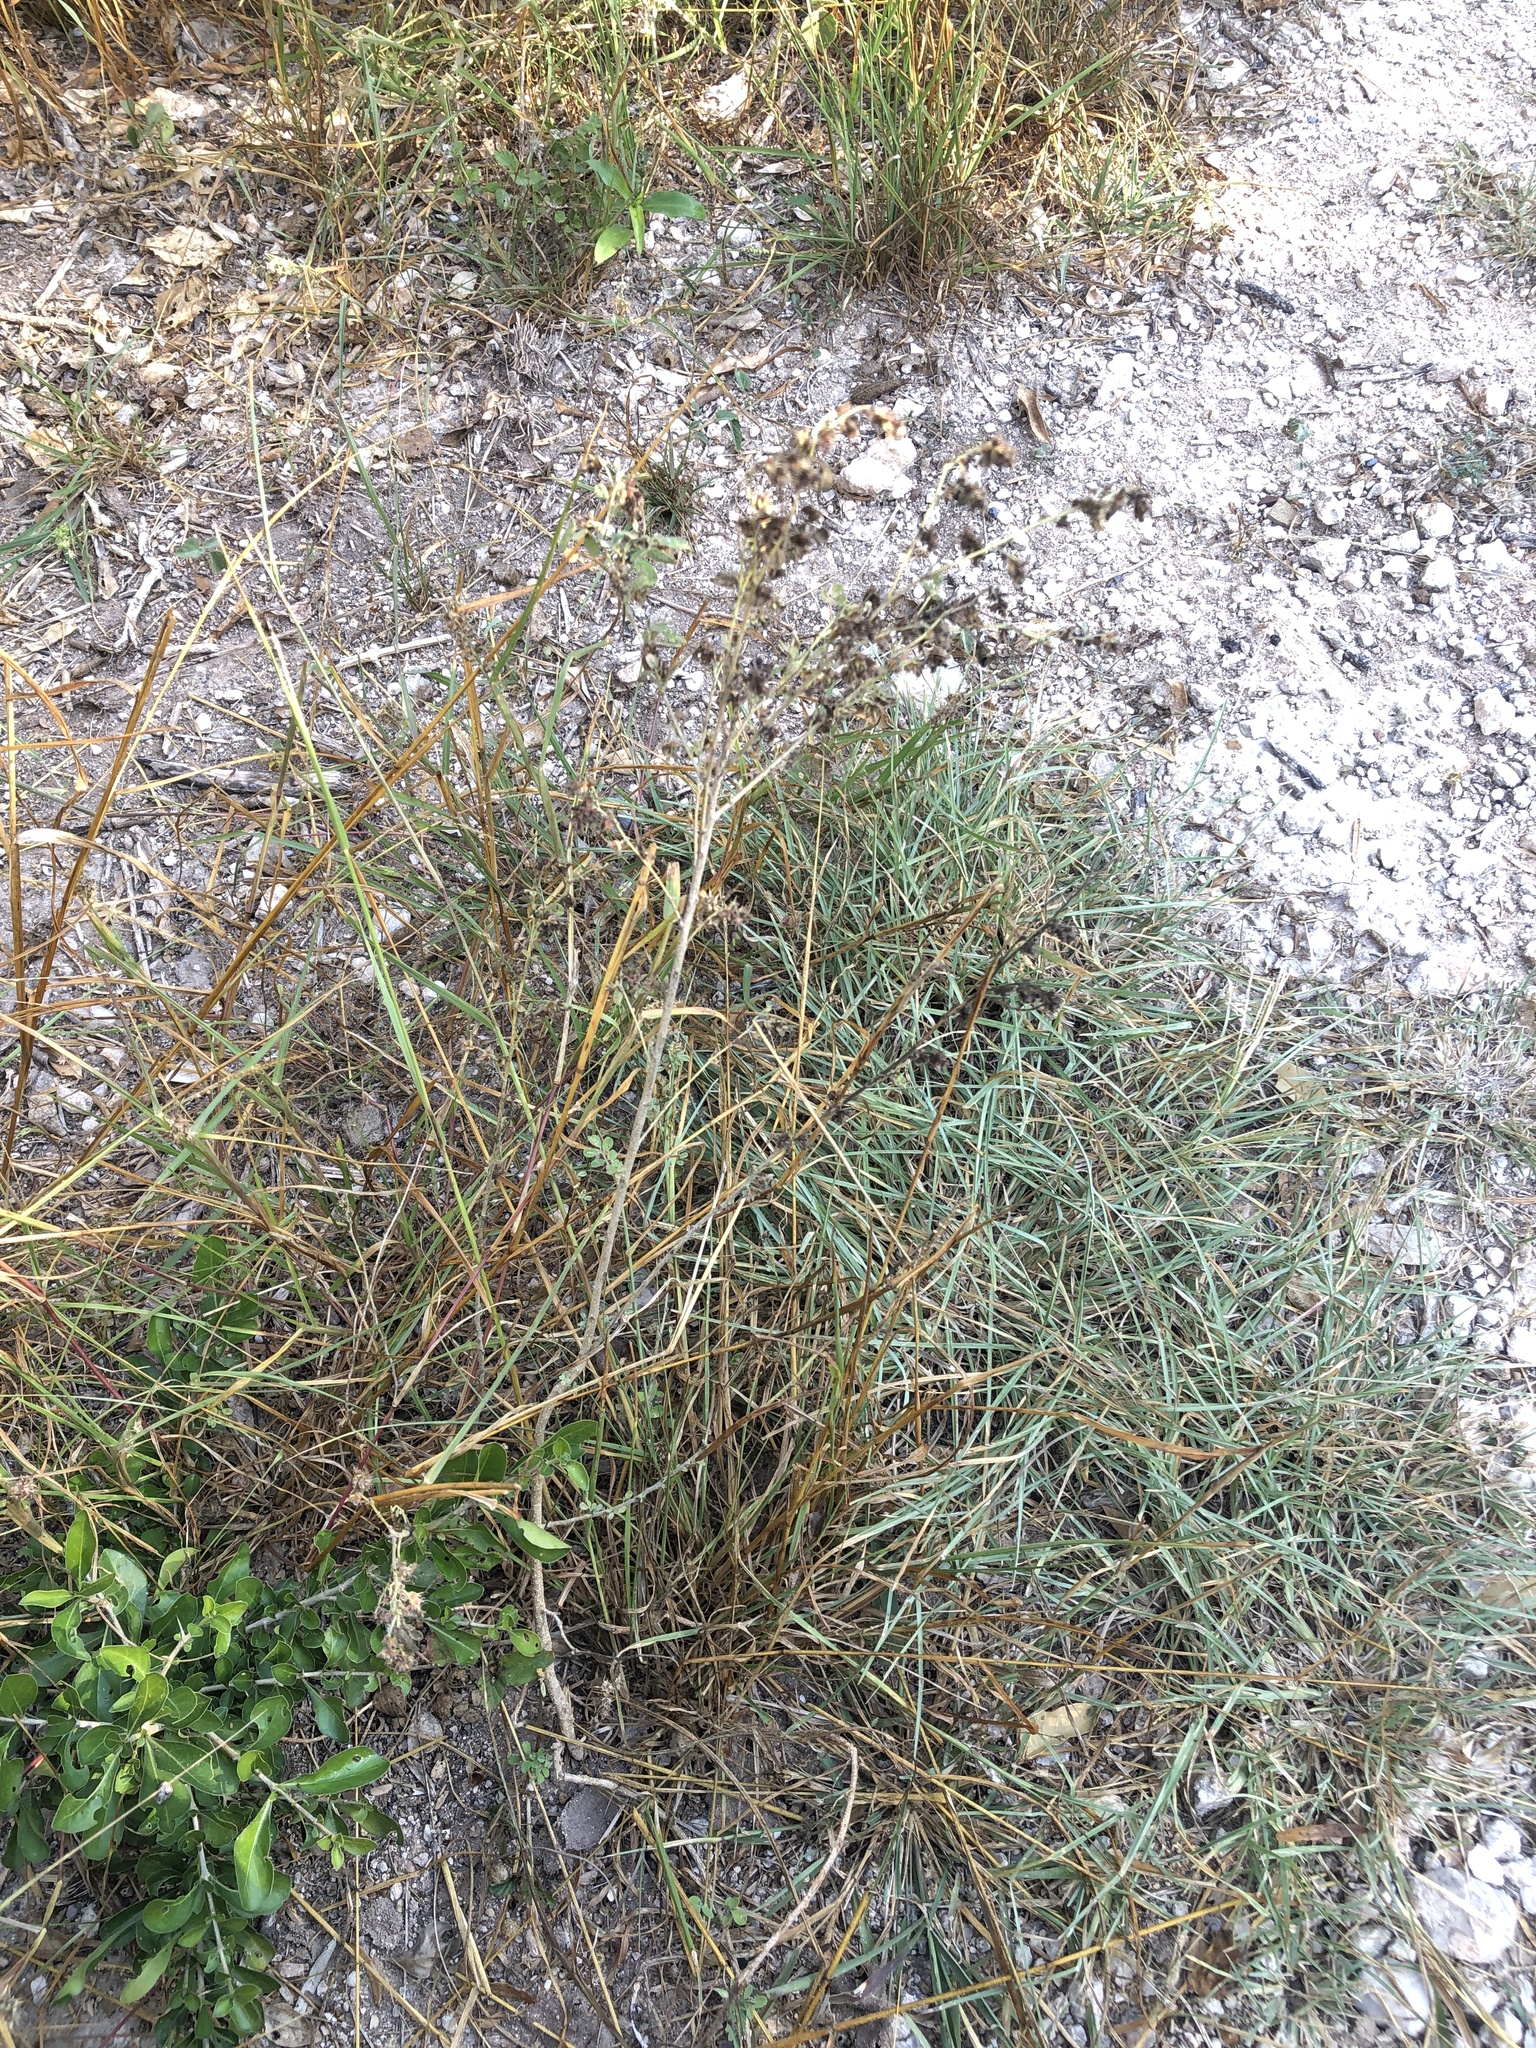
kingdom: Plantae
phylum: Tracheophyta
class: Magnoliopsida
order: Fabales
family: Fabaceae
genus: Dalea
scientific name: Dalea scandens
